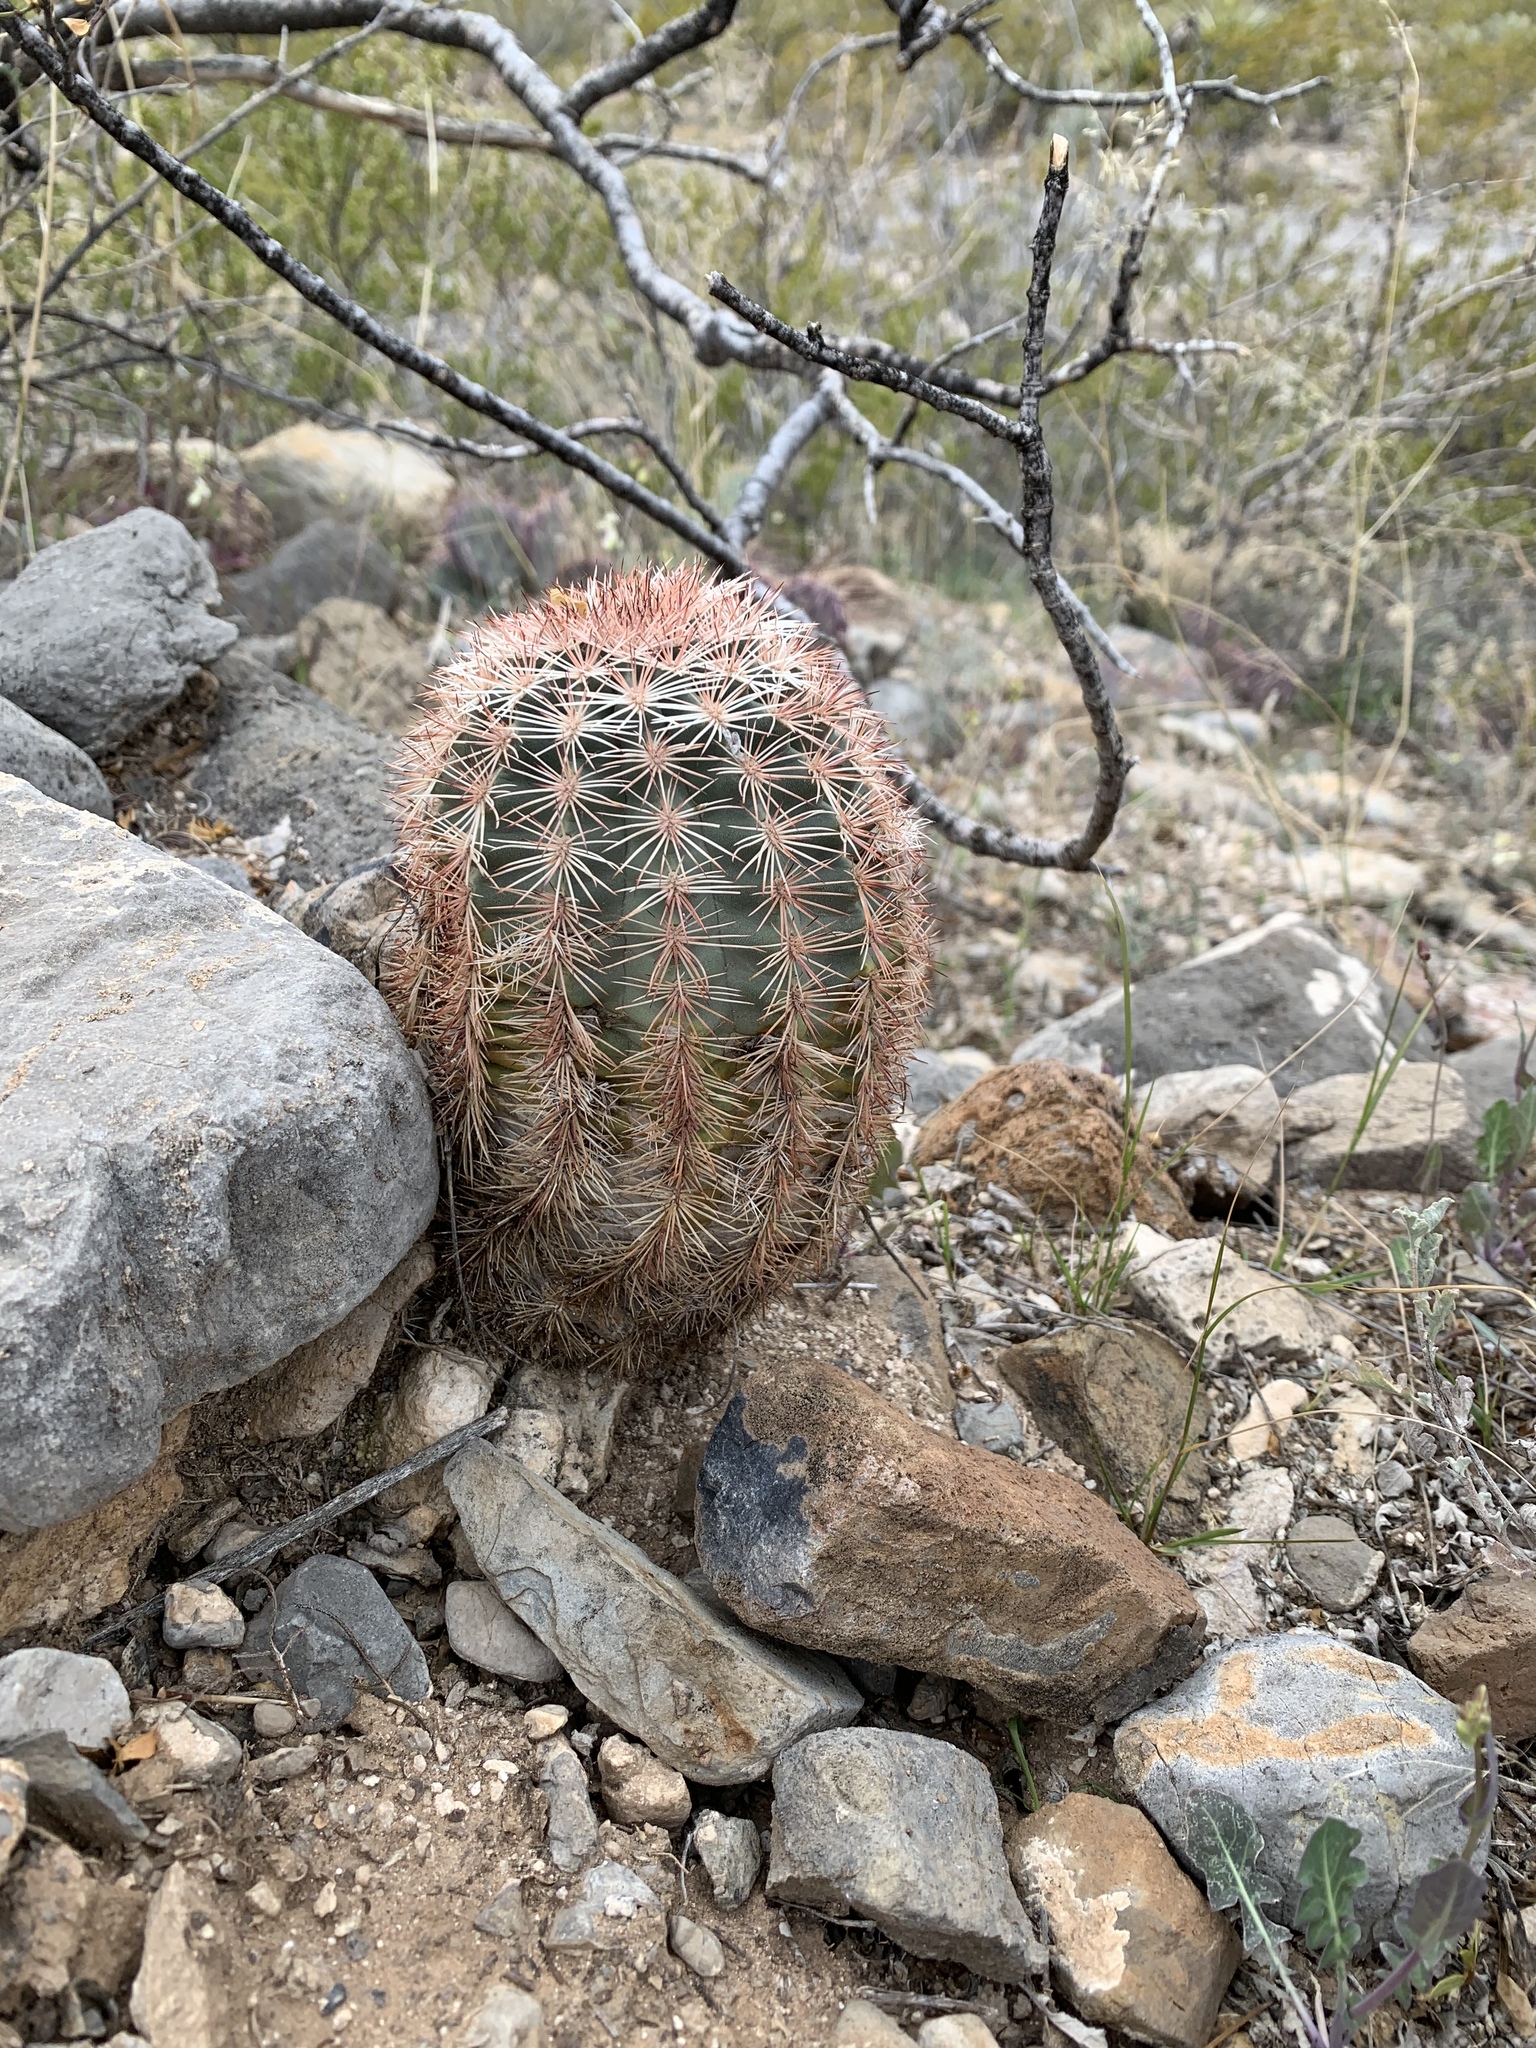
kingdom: Plantae
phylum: Tracheophyta
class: Magnoliopsida
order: Caryophyllales
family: Cactaceae
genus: Echinocereus
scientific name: Echinocereus dasyacanthus
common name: Spiny hedgehog cactus
